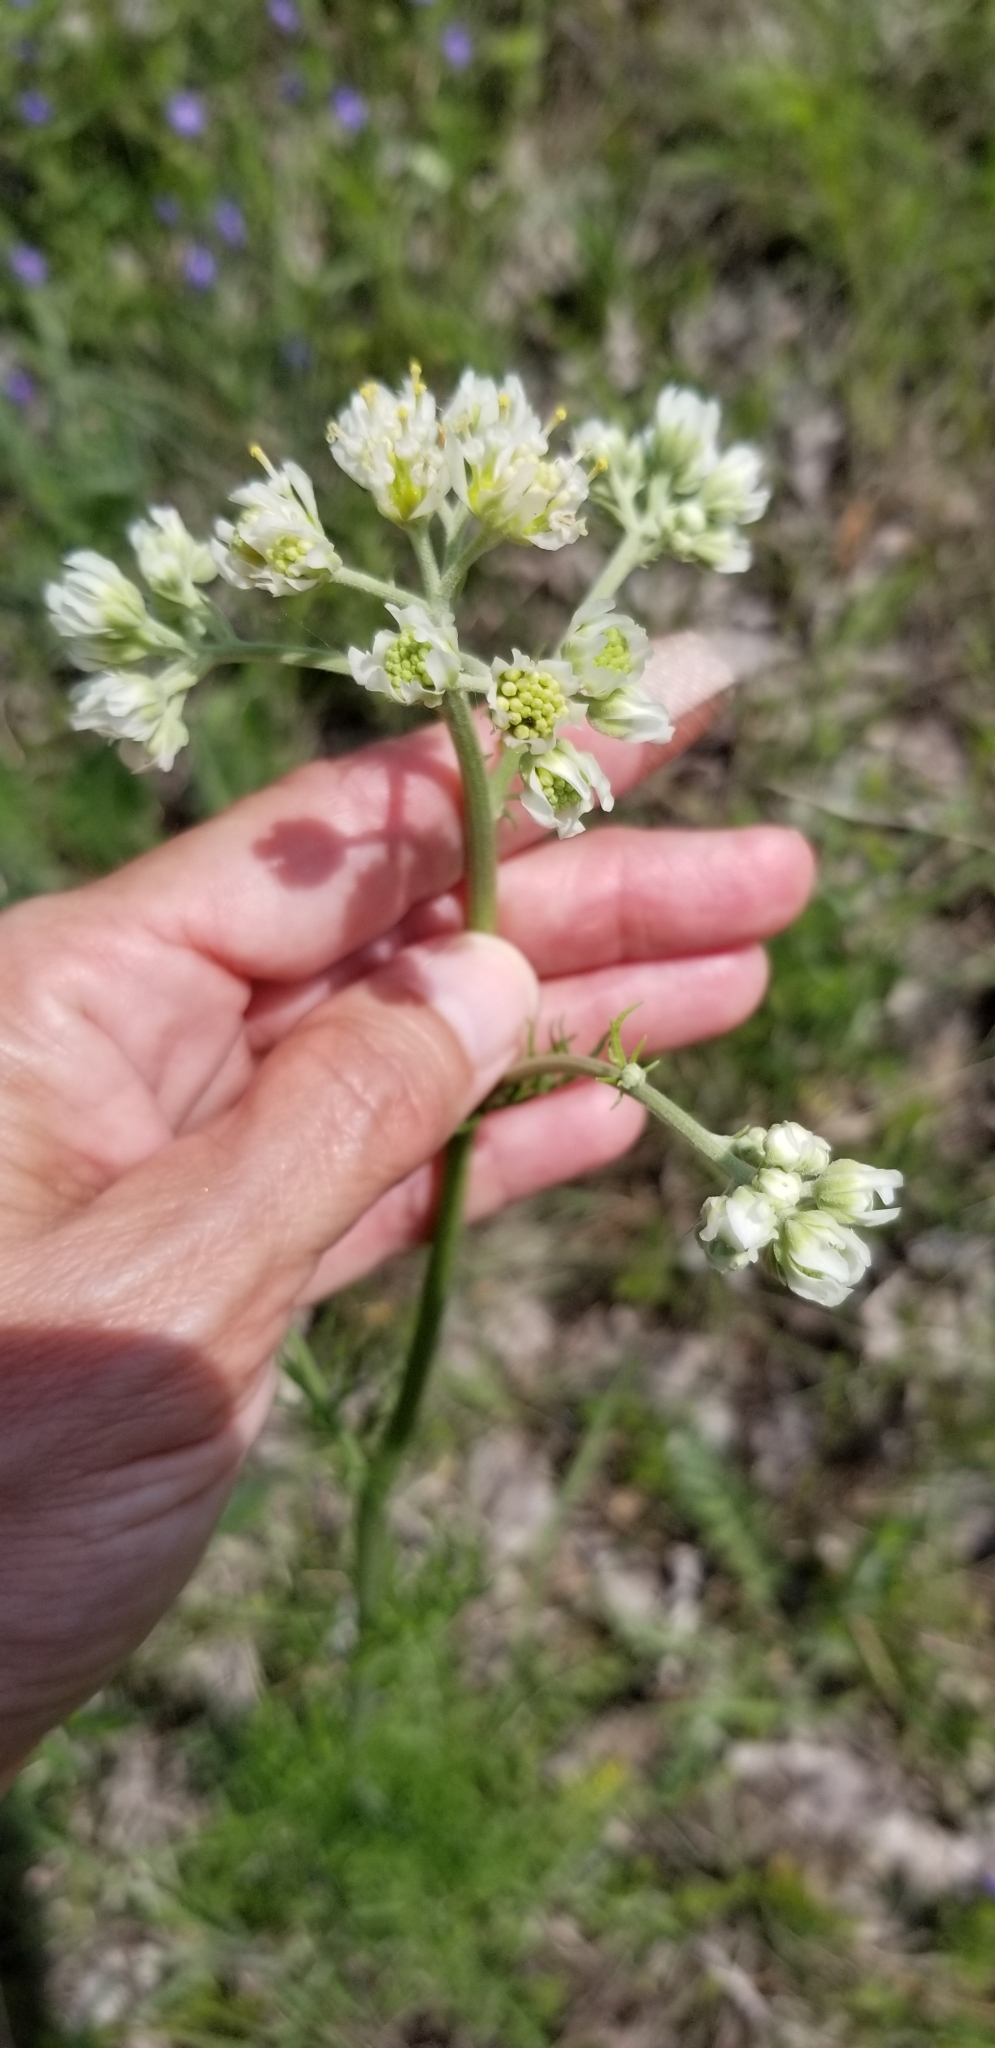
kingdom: Plantae
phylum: Tracheophyta
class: Magnoliopsida
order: Asterales
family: Asteraceae
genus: Hymenopappus
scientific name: Hymenopappus scabiosaeus
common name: Carolina woollywhite
